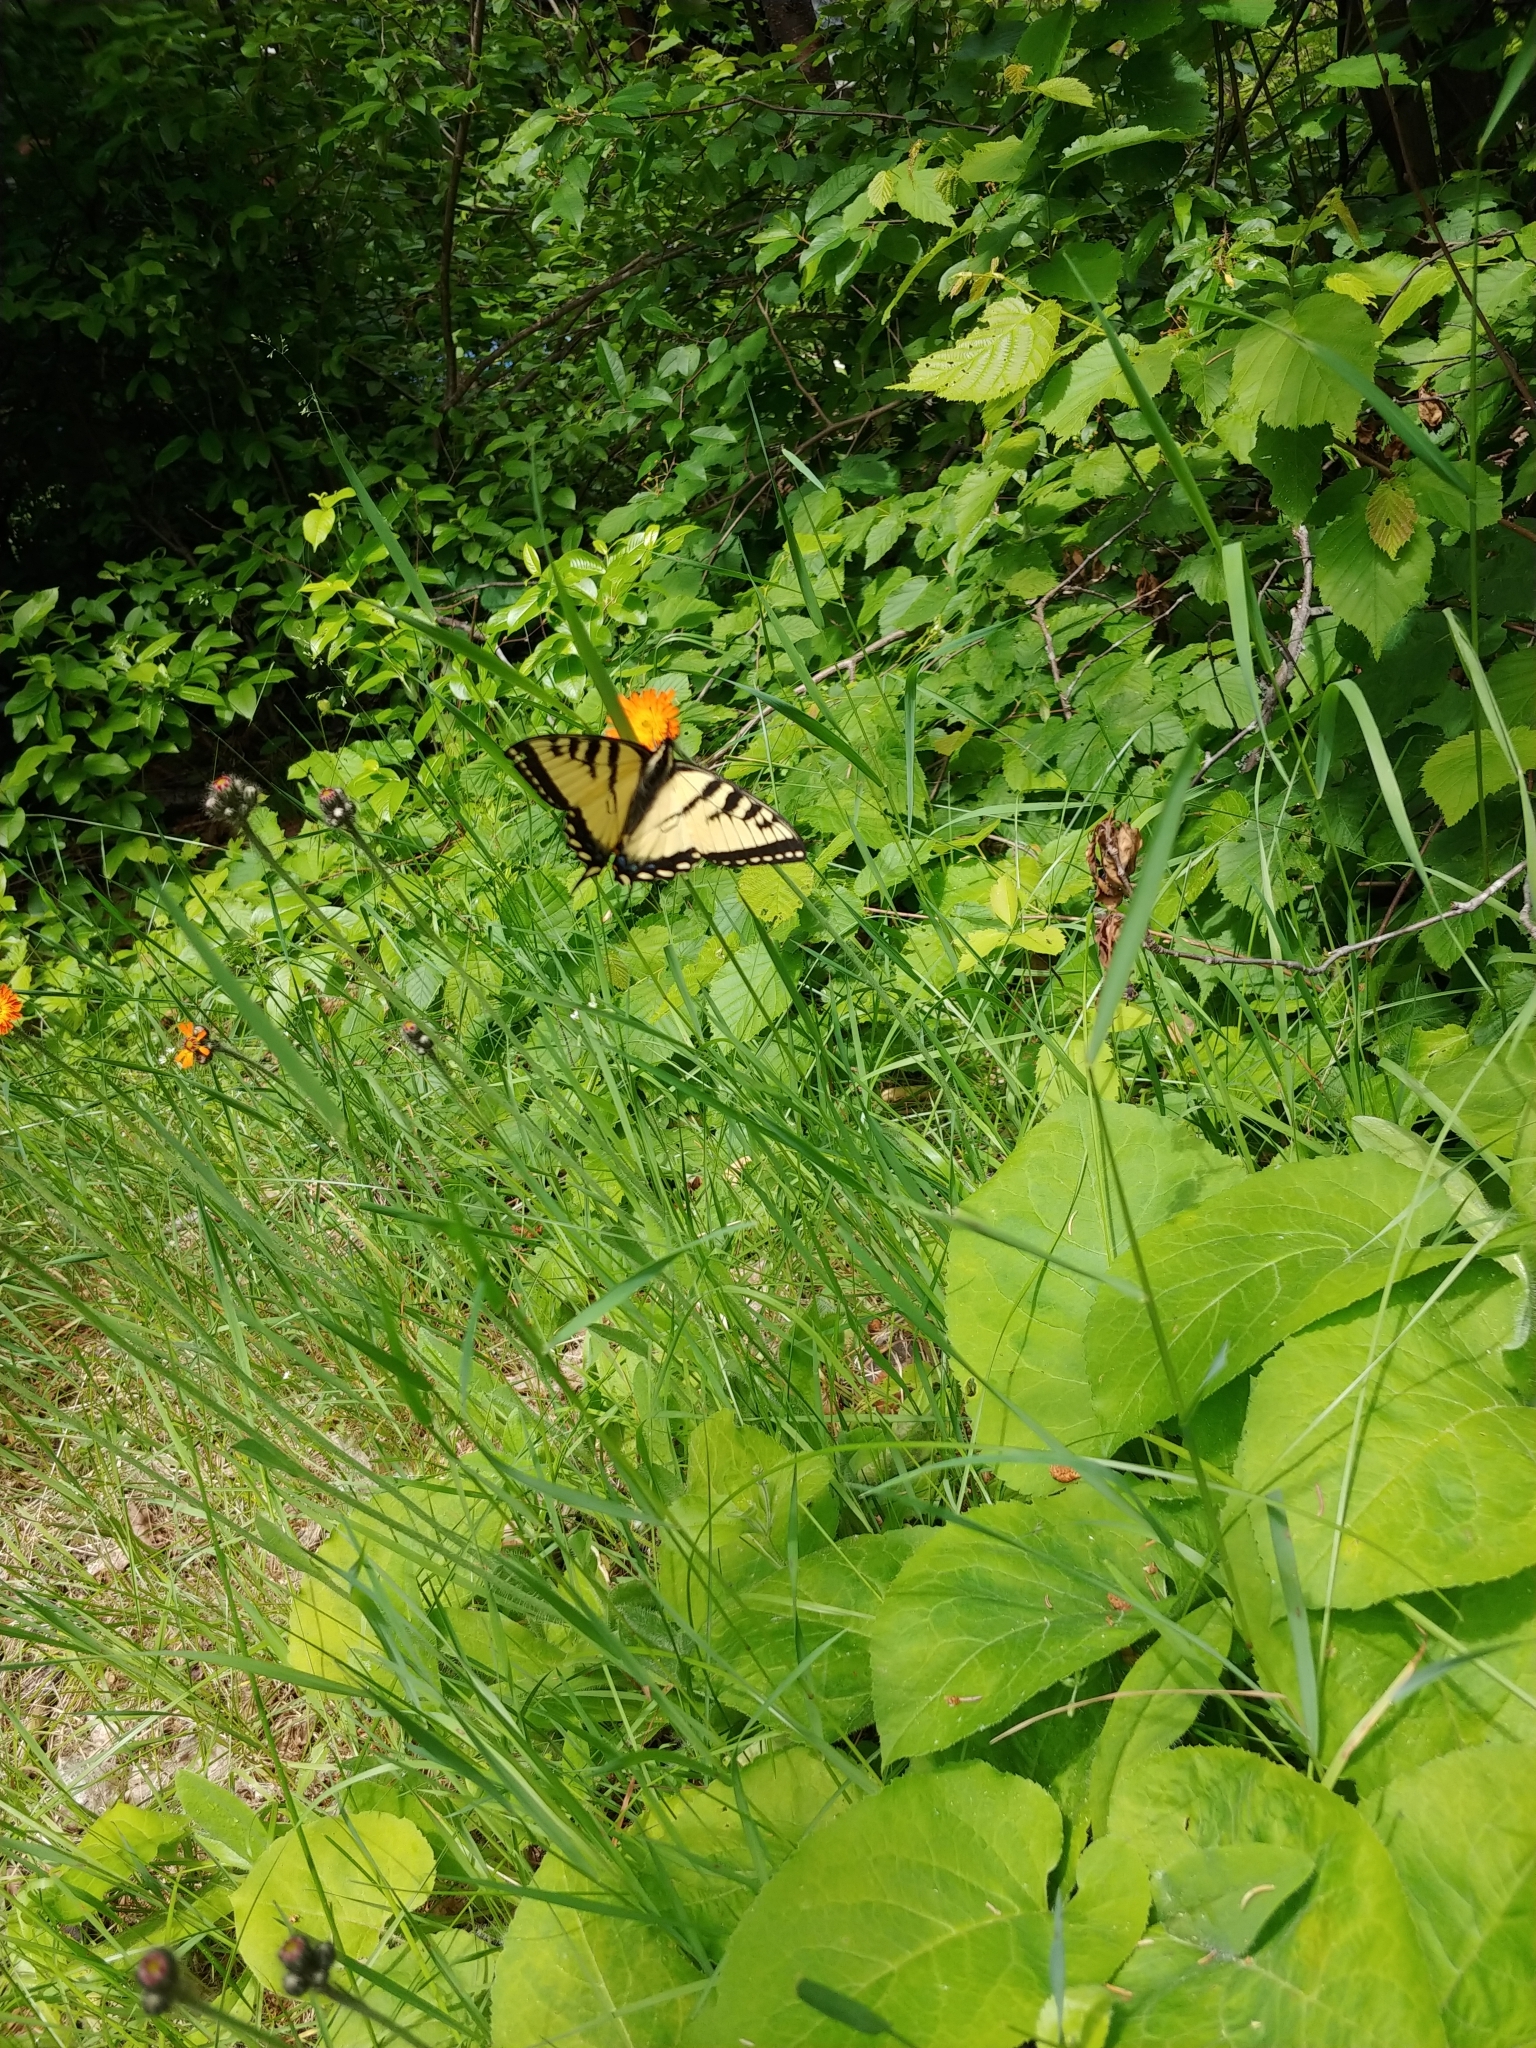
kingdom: Animalia
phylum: Arthropoda
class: Insecta
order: Lepidoptera
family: Papilionidae
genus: Papilio
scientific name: Papilio canadensis
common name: Canadian tiger swallowtail
